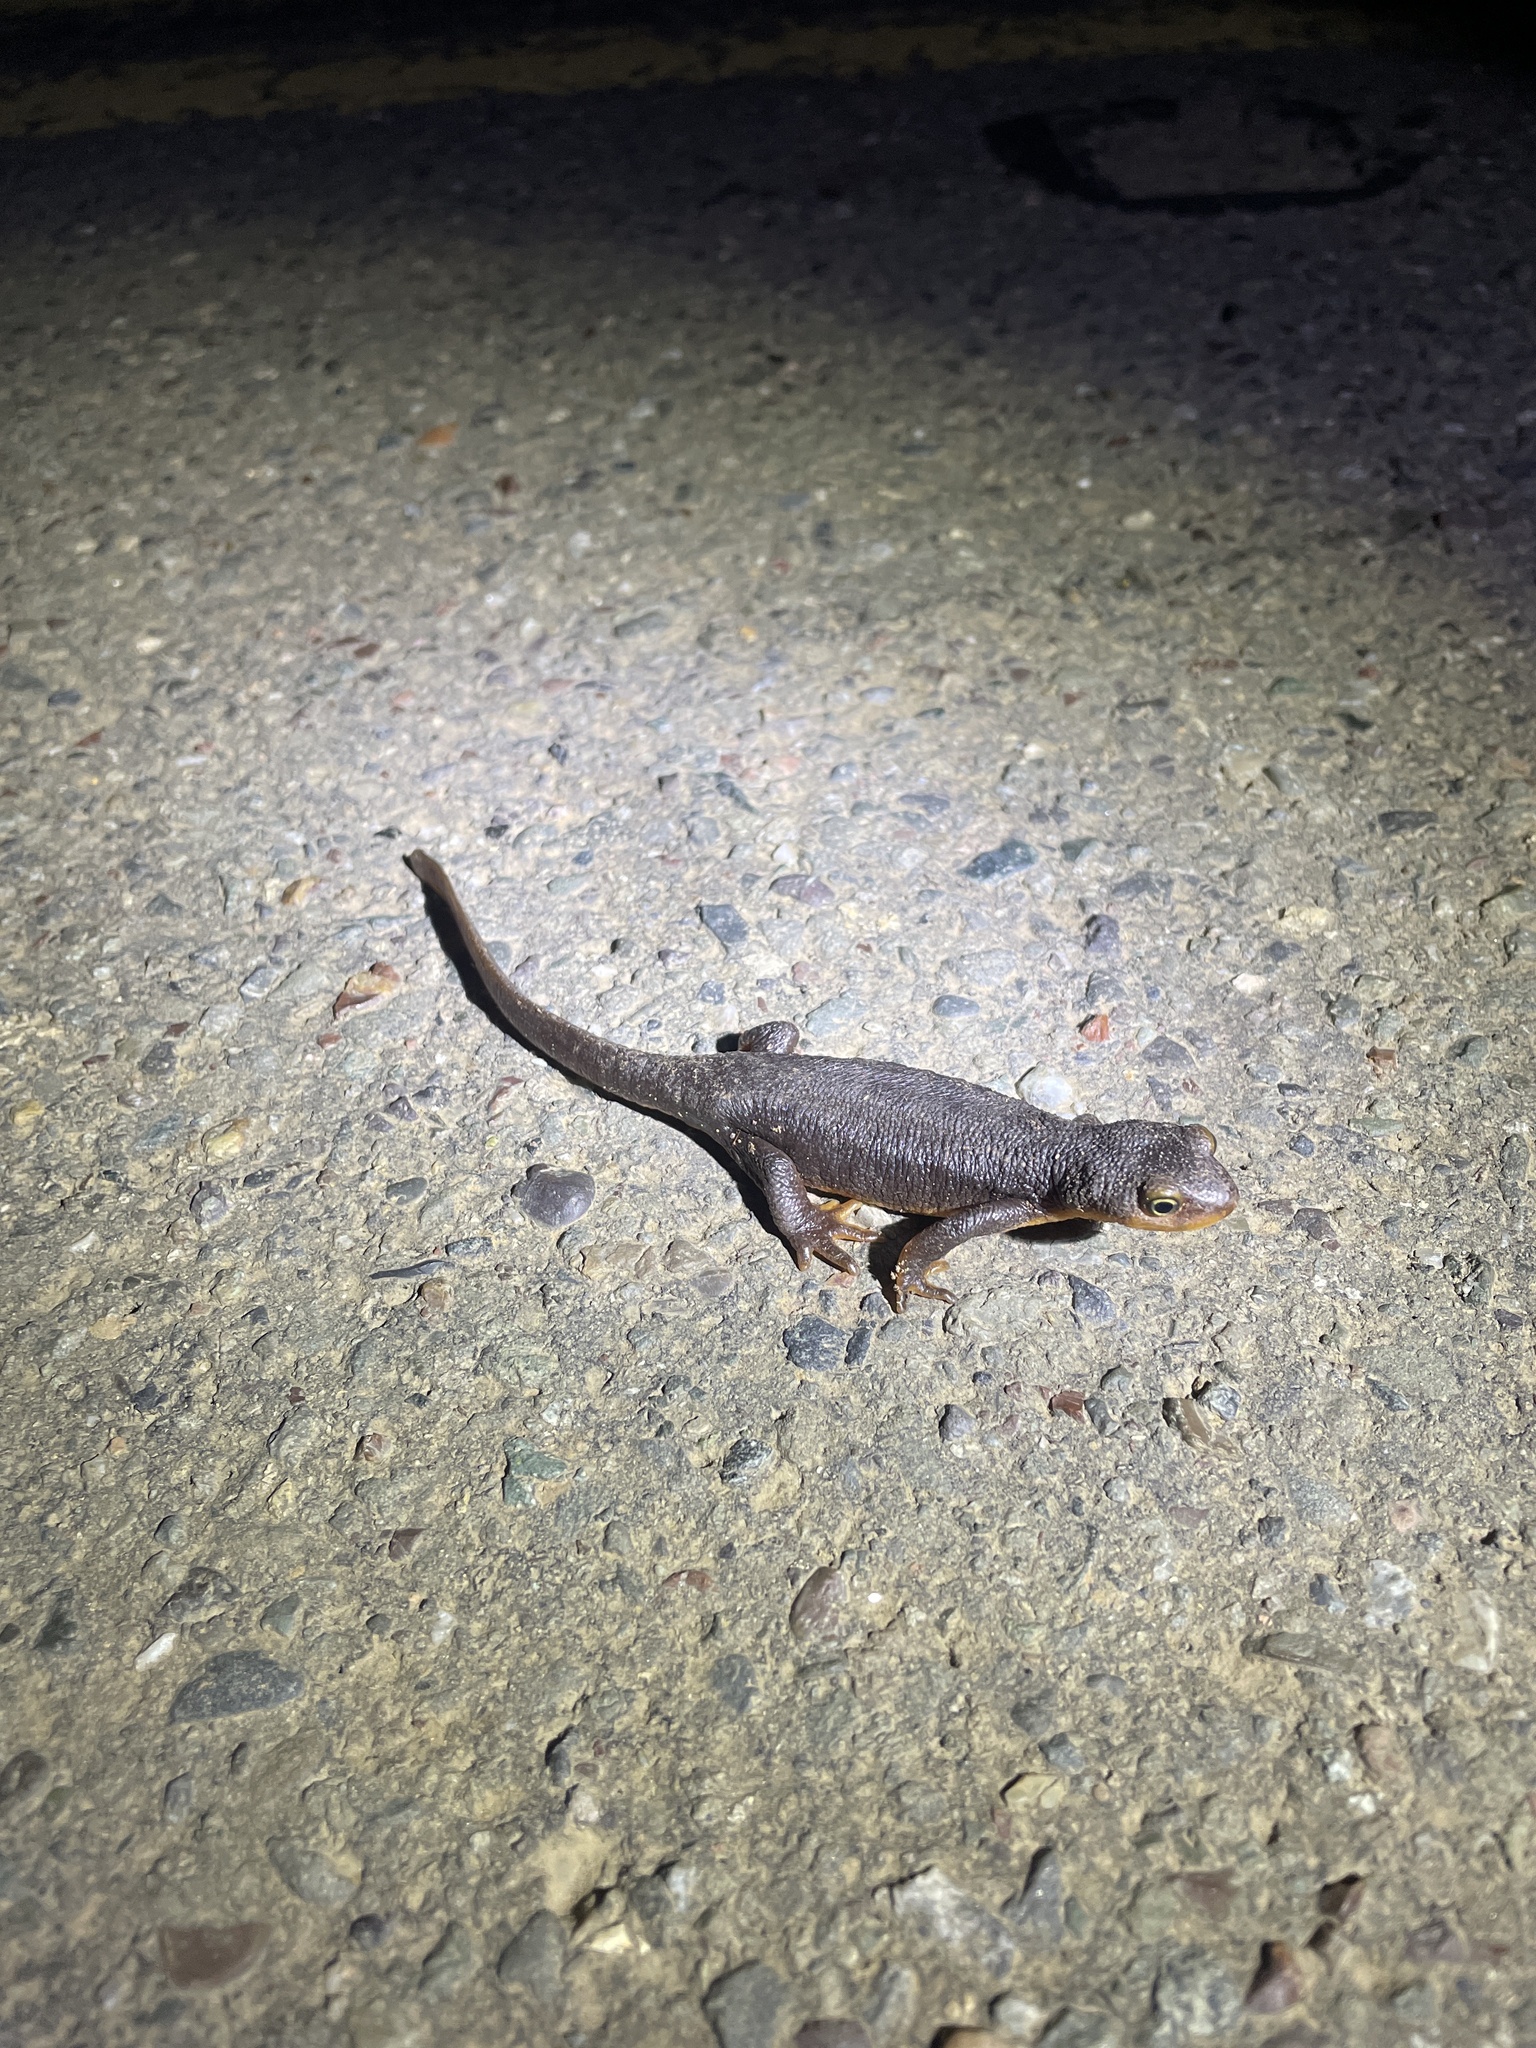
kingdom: Animalia
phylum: Chordata
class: Amphibia
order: Caudata
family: Salamandridae
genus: Taricha
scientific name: Taricha torosa
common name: California newt
